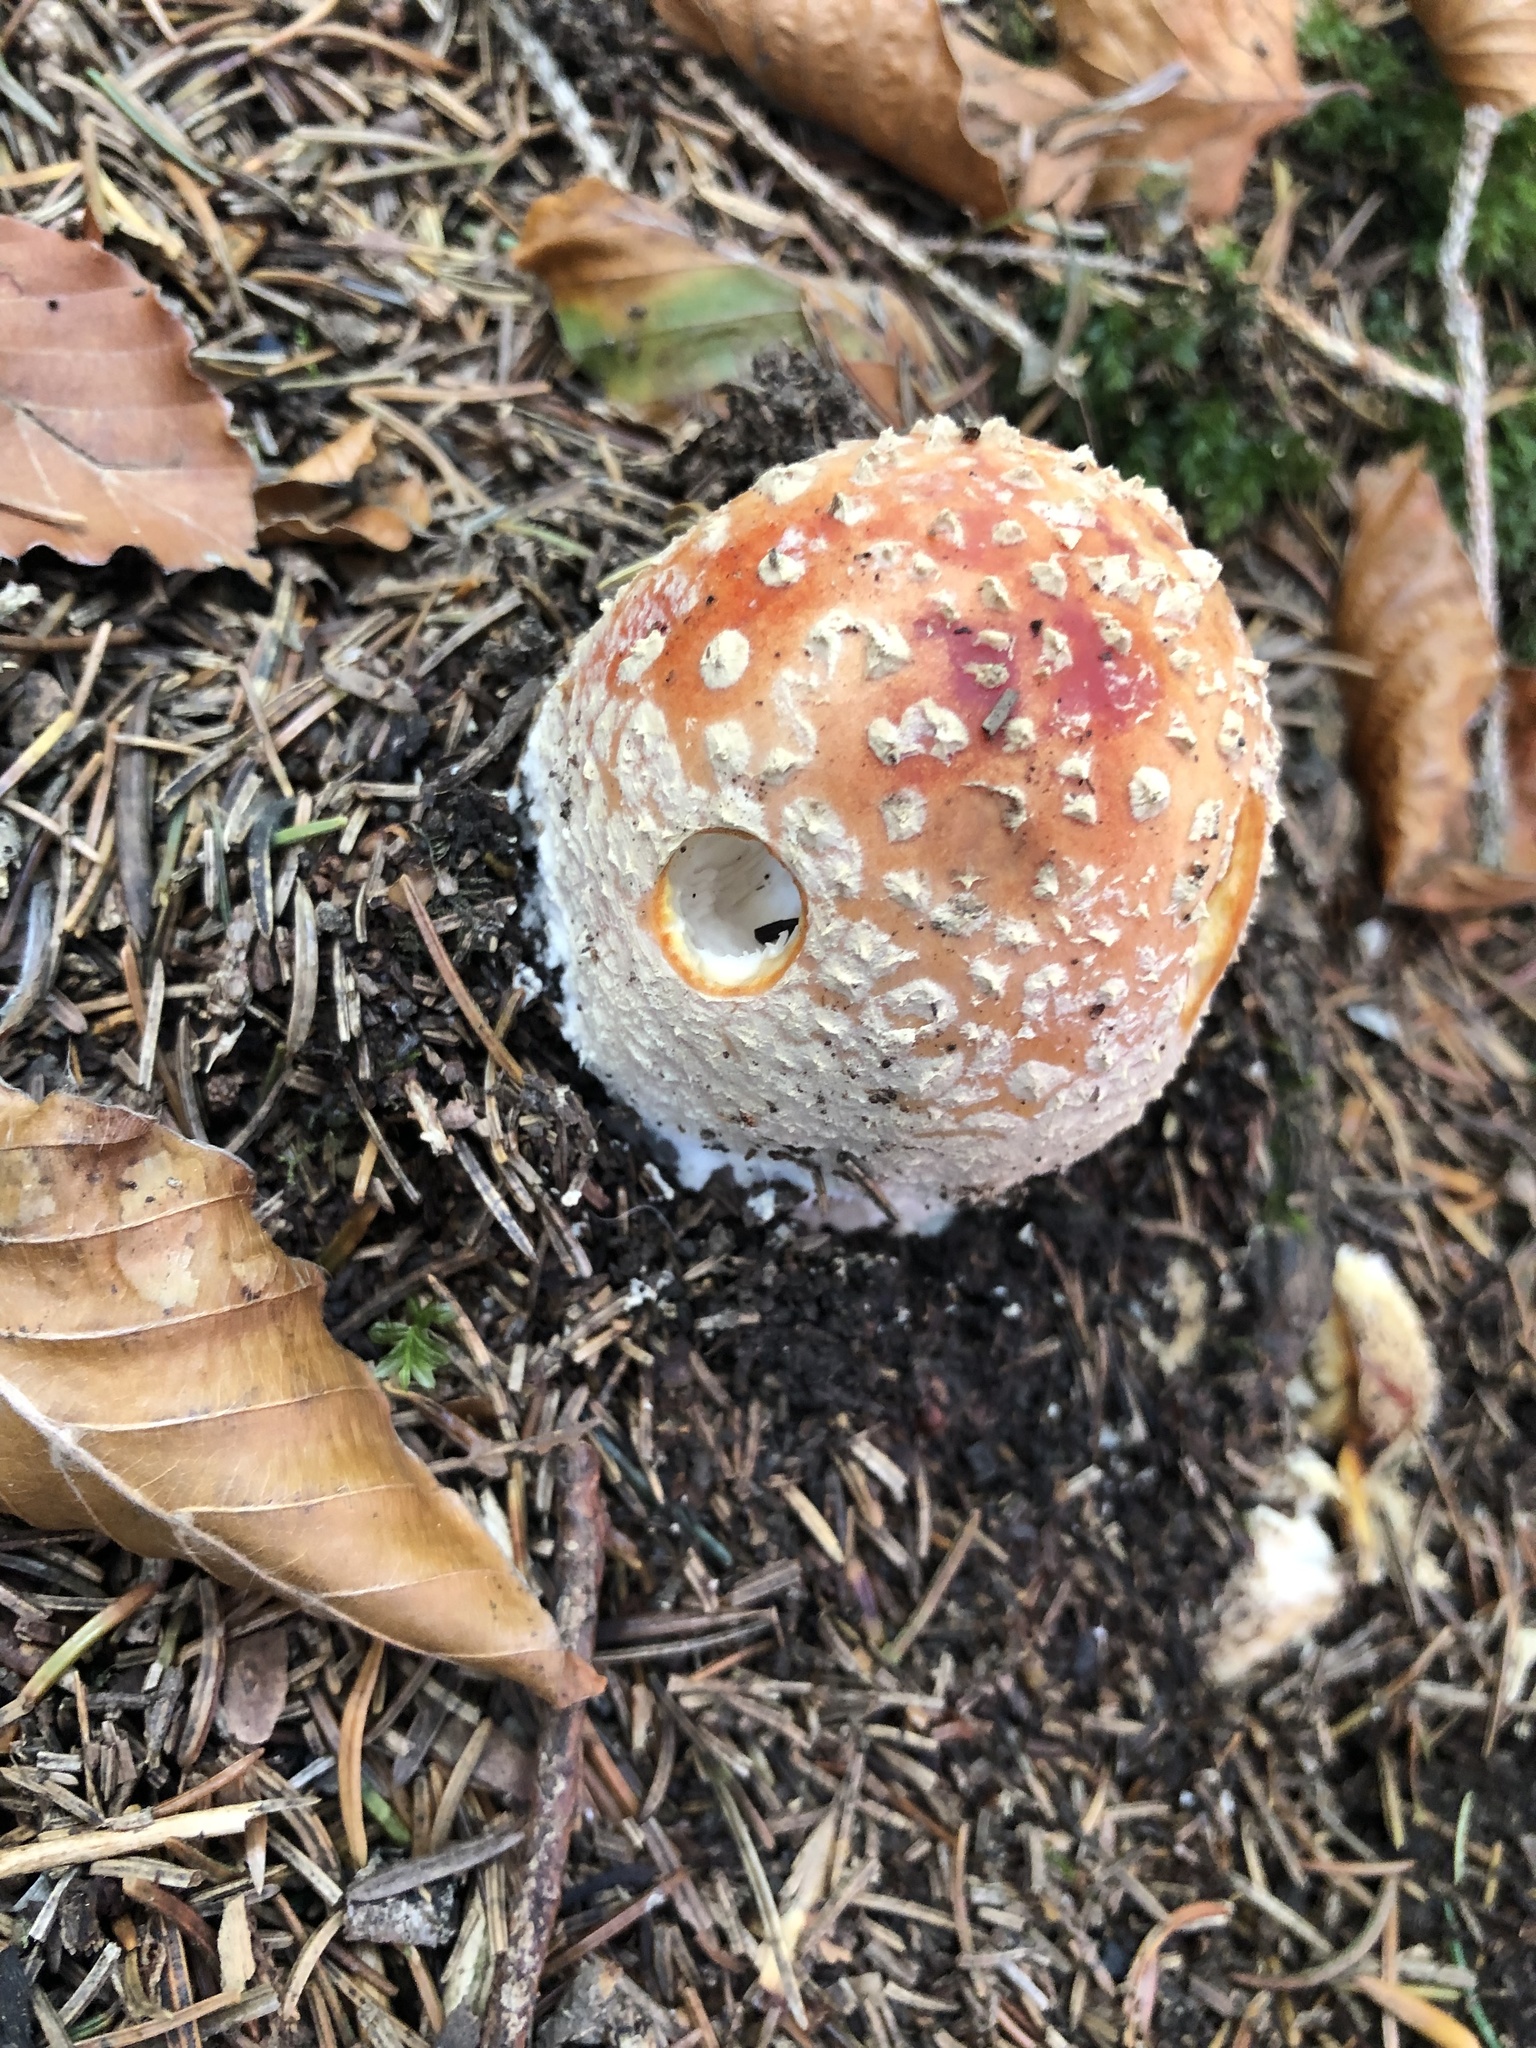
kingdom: Fungi
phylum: Basidiomycota
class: Agaricomycetes
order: Agaricales
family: Amanitaceae
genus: Amanita
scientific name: Amanita muscaria
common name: Fly agaric
